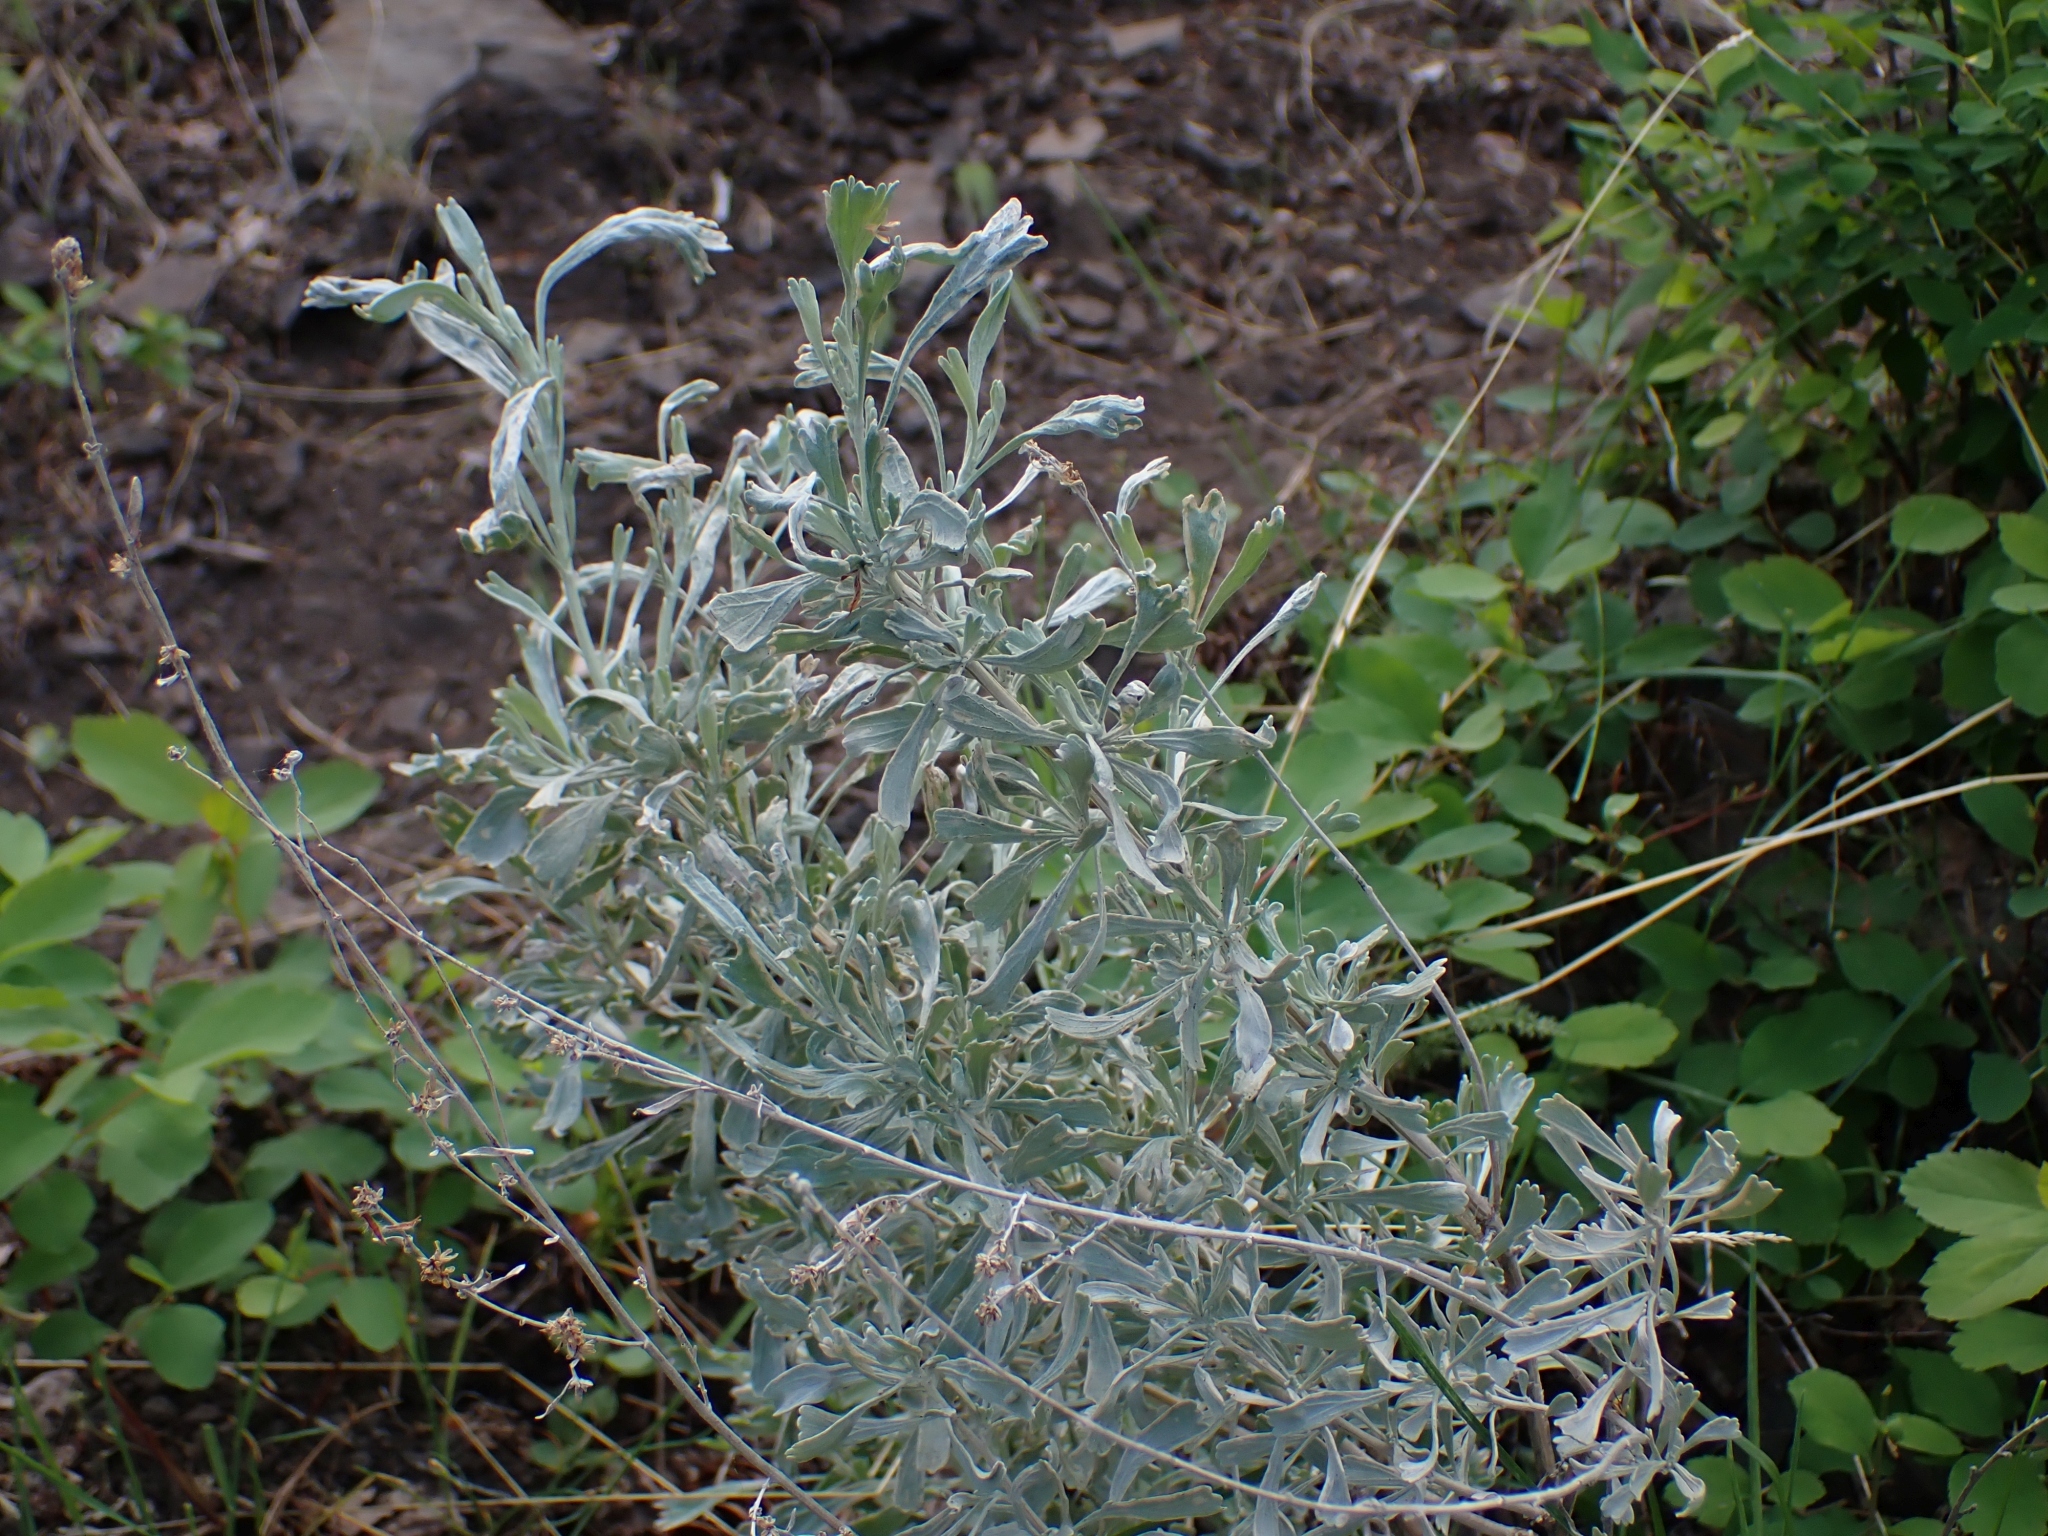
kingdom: Plantae
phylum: Tracheophyta
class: Magnoliopsida
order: Asterales
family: Asteraceae
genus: Artemisia
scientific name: Artemisia tridentata
